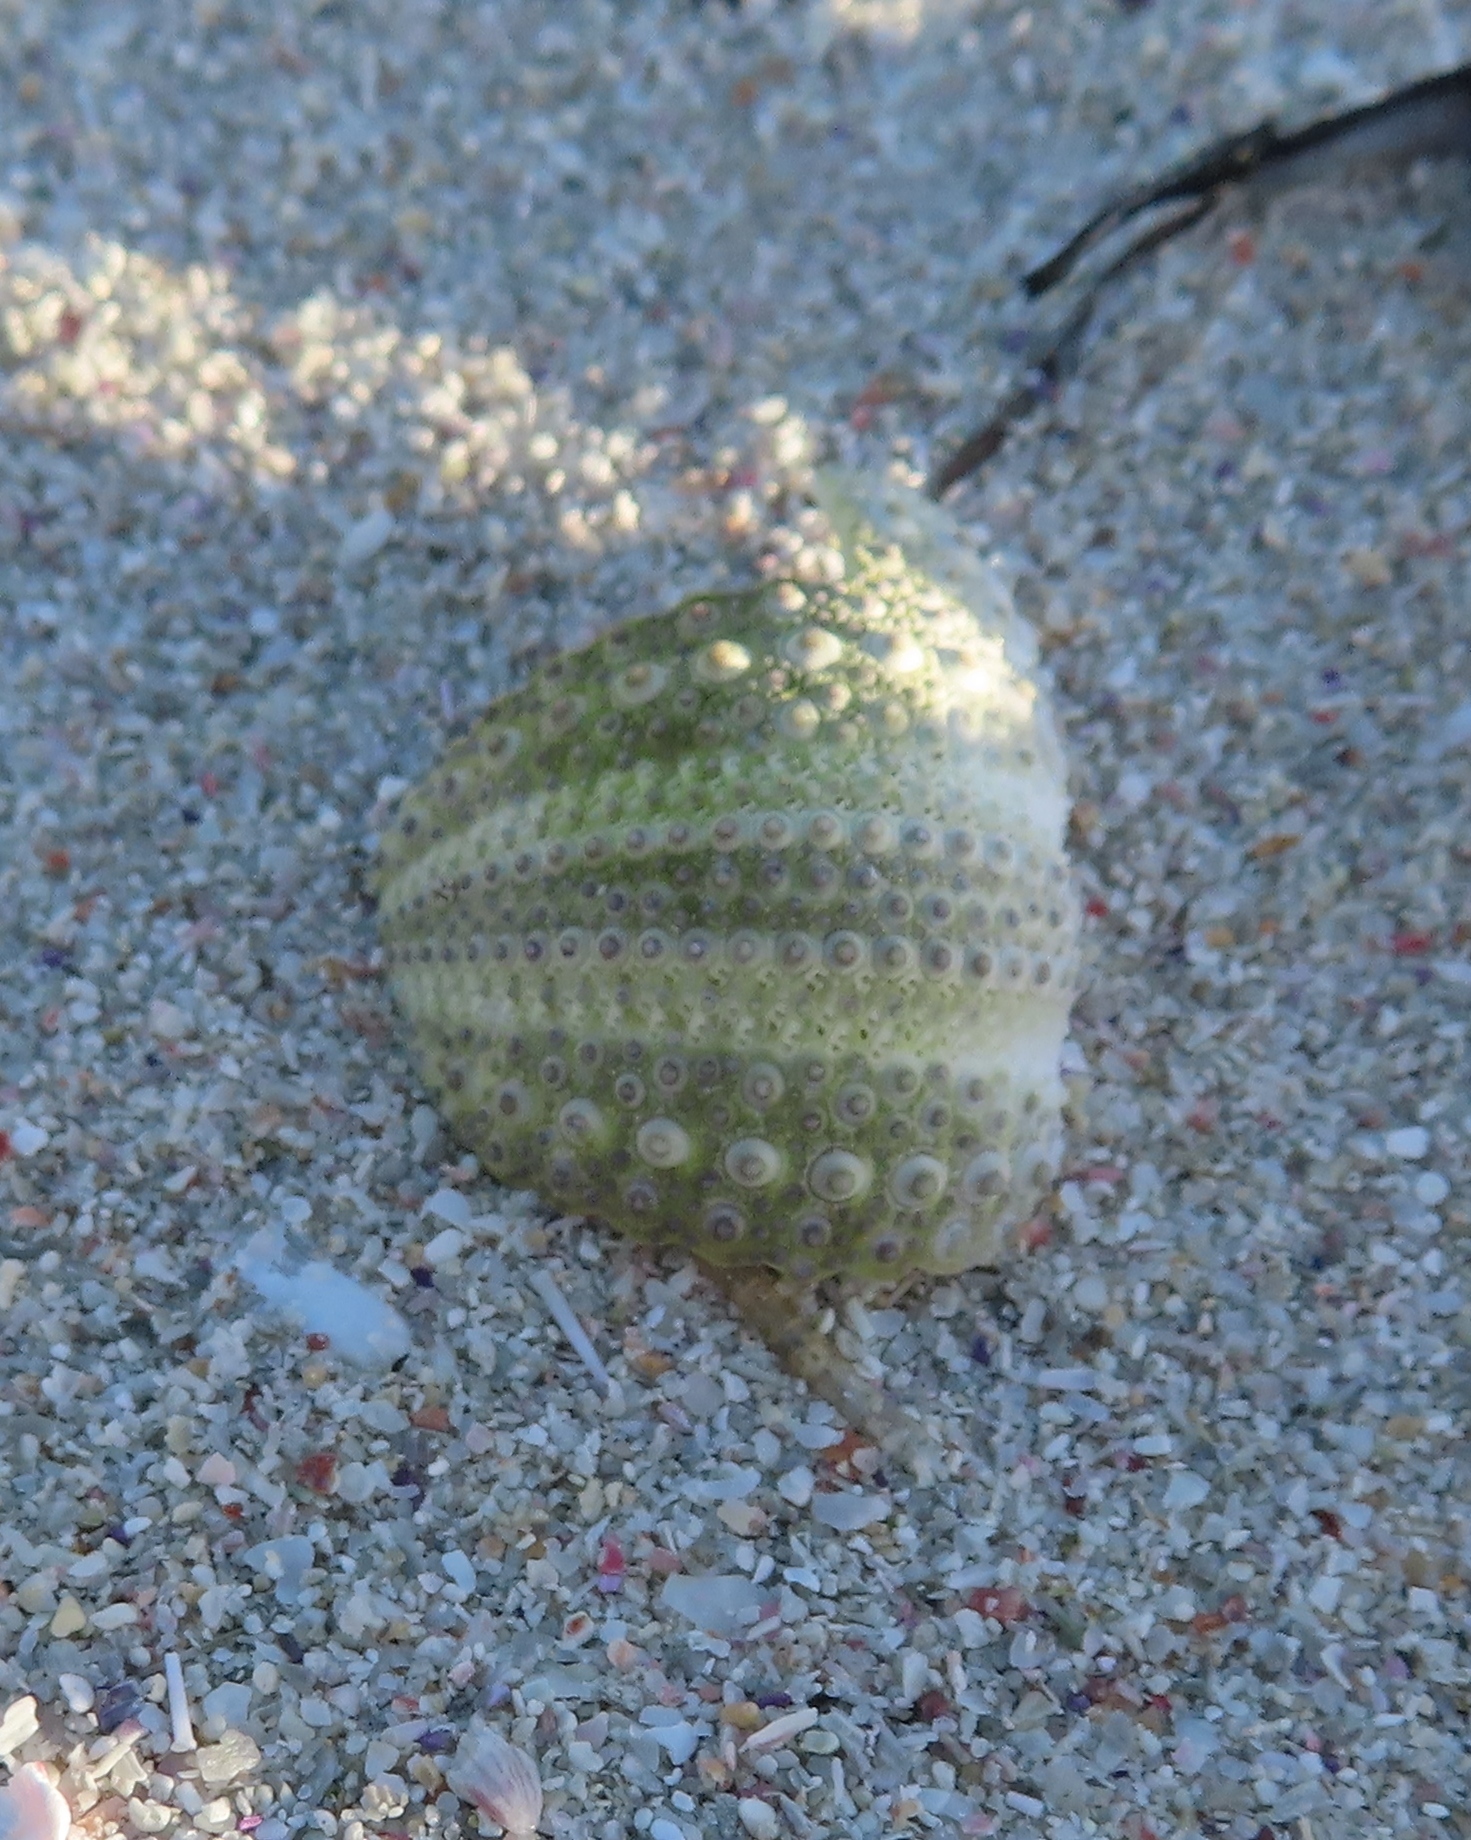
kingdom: Animalia
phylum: Echinodermata
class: Echinoidea
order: Camarodonta
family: Parechinidae
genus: Parechinus
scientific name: Parechinus angulosus
